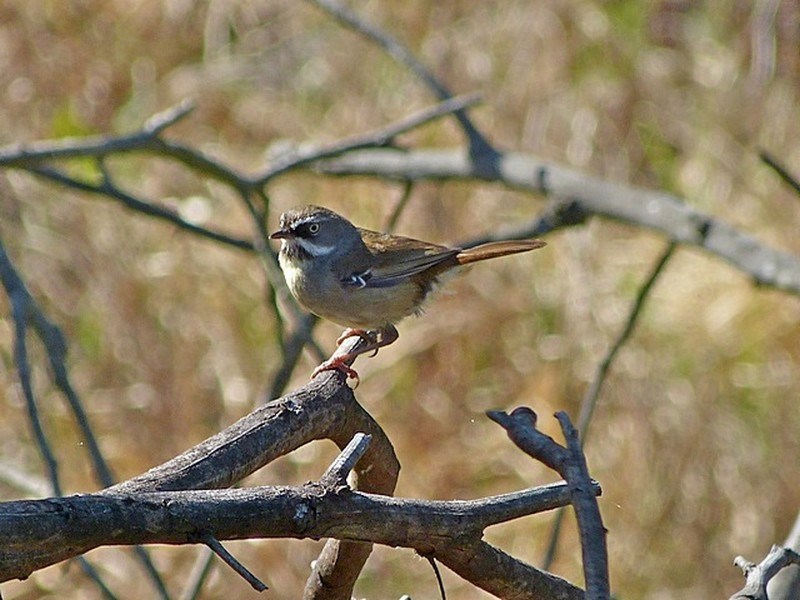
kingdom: Animalia
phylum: Chordata
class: Aves
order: Passeriformes
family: Acanthizidae
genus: Sericornis
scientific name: Sericornis frontalis
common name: White-browed scrubwren
